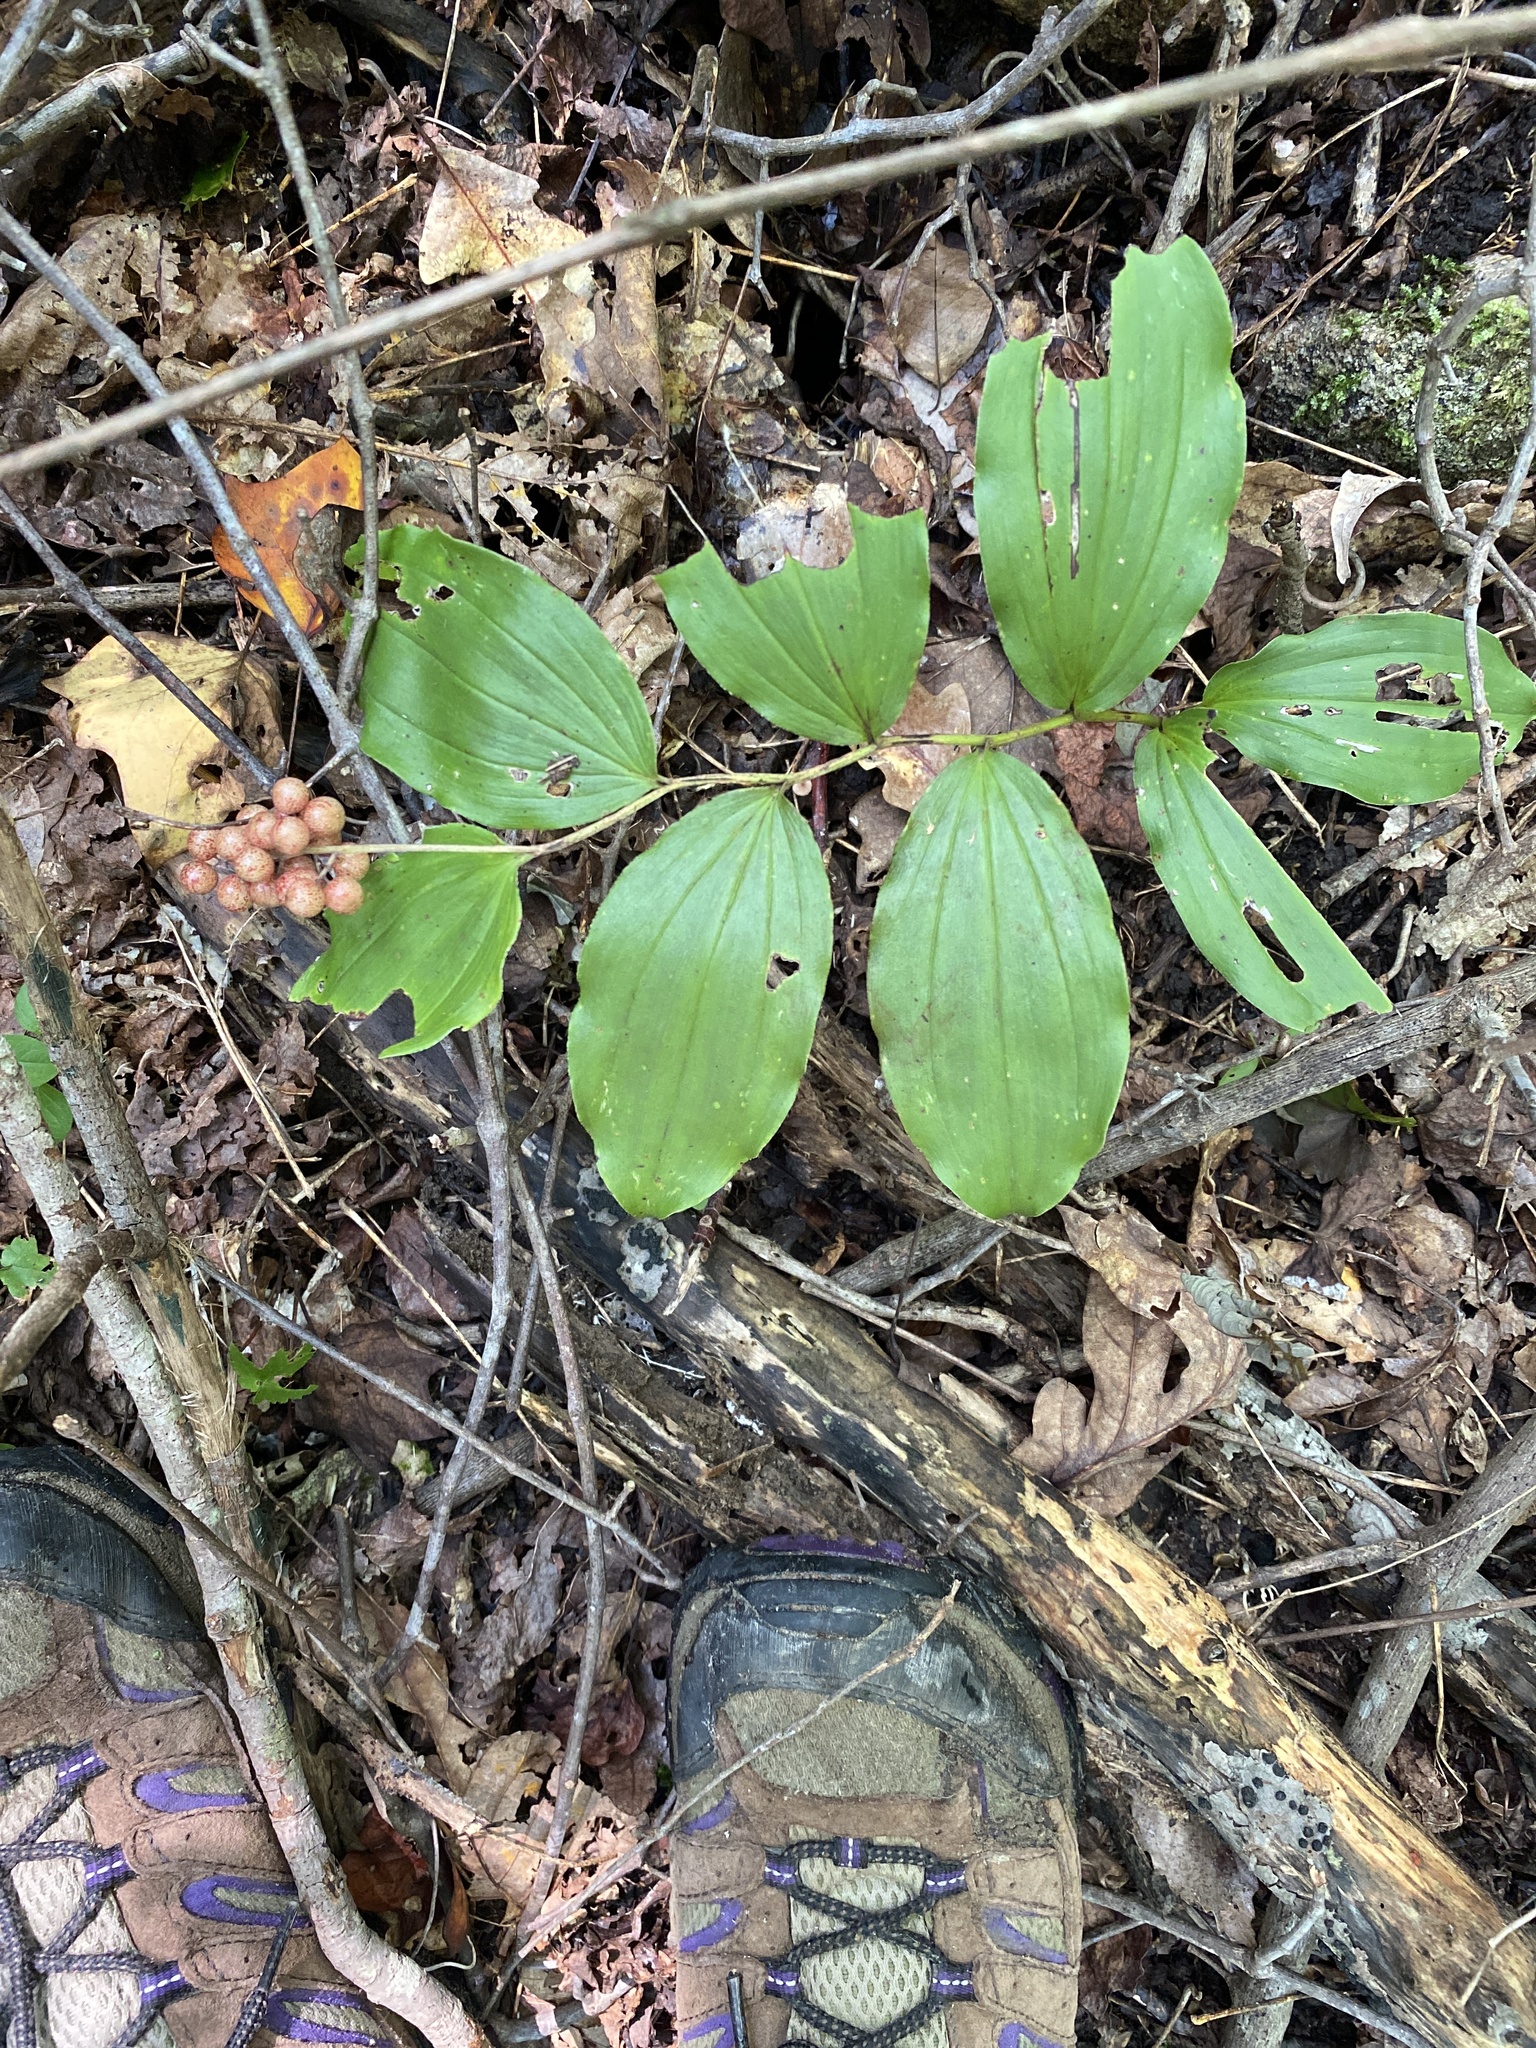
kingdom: Plantae
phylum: Tracheophyta
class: Liliopsida
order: Asparagales
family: Asparagaceae
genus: Maianthemum
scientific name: Maianthemum racemosum
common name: False spikenard
